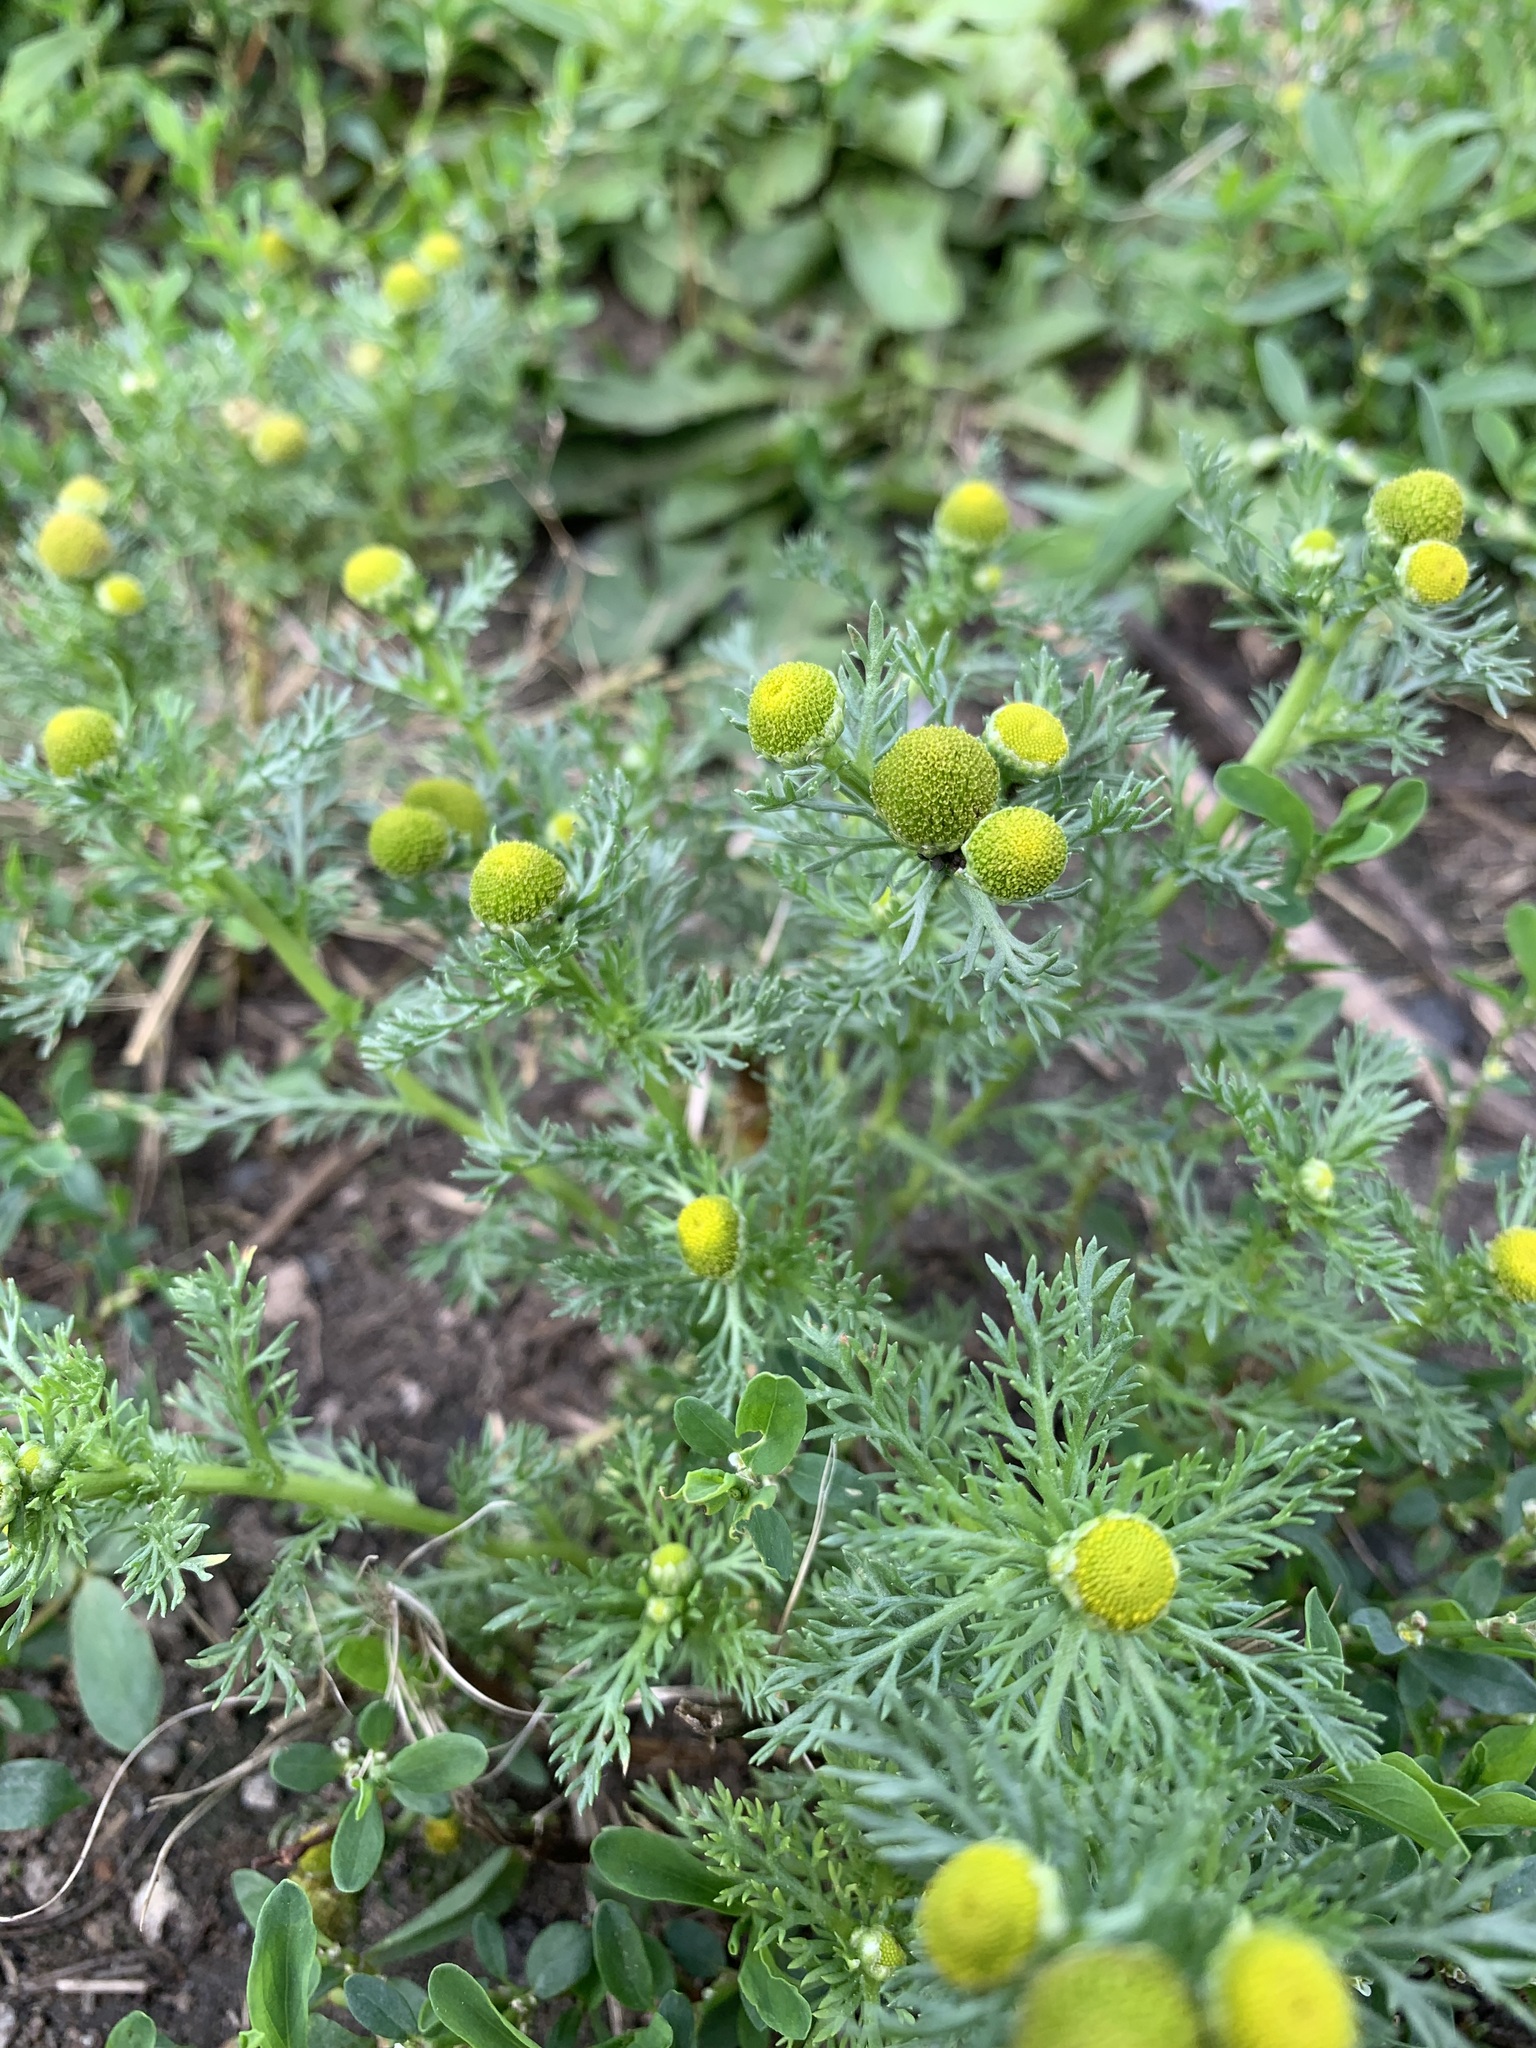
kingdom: Plantae
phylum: Tracheophyta
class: Magnoliopsida
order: Asterales
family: Asteraceae
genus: Matricaria
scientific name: Matricaria discoidea
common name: Disc mayweed
